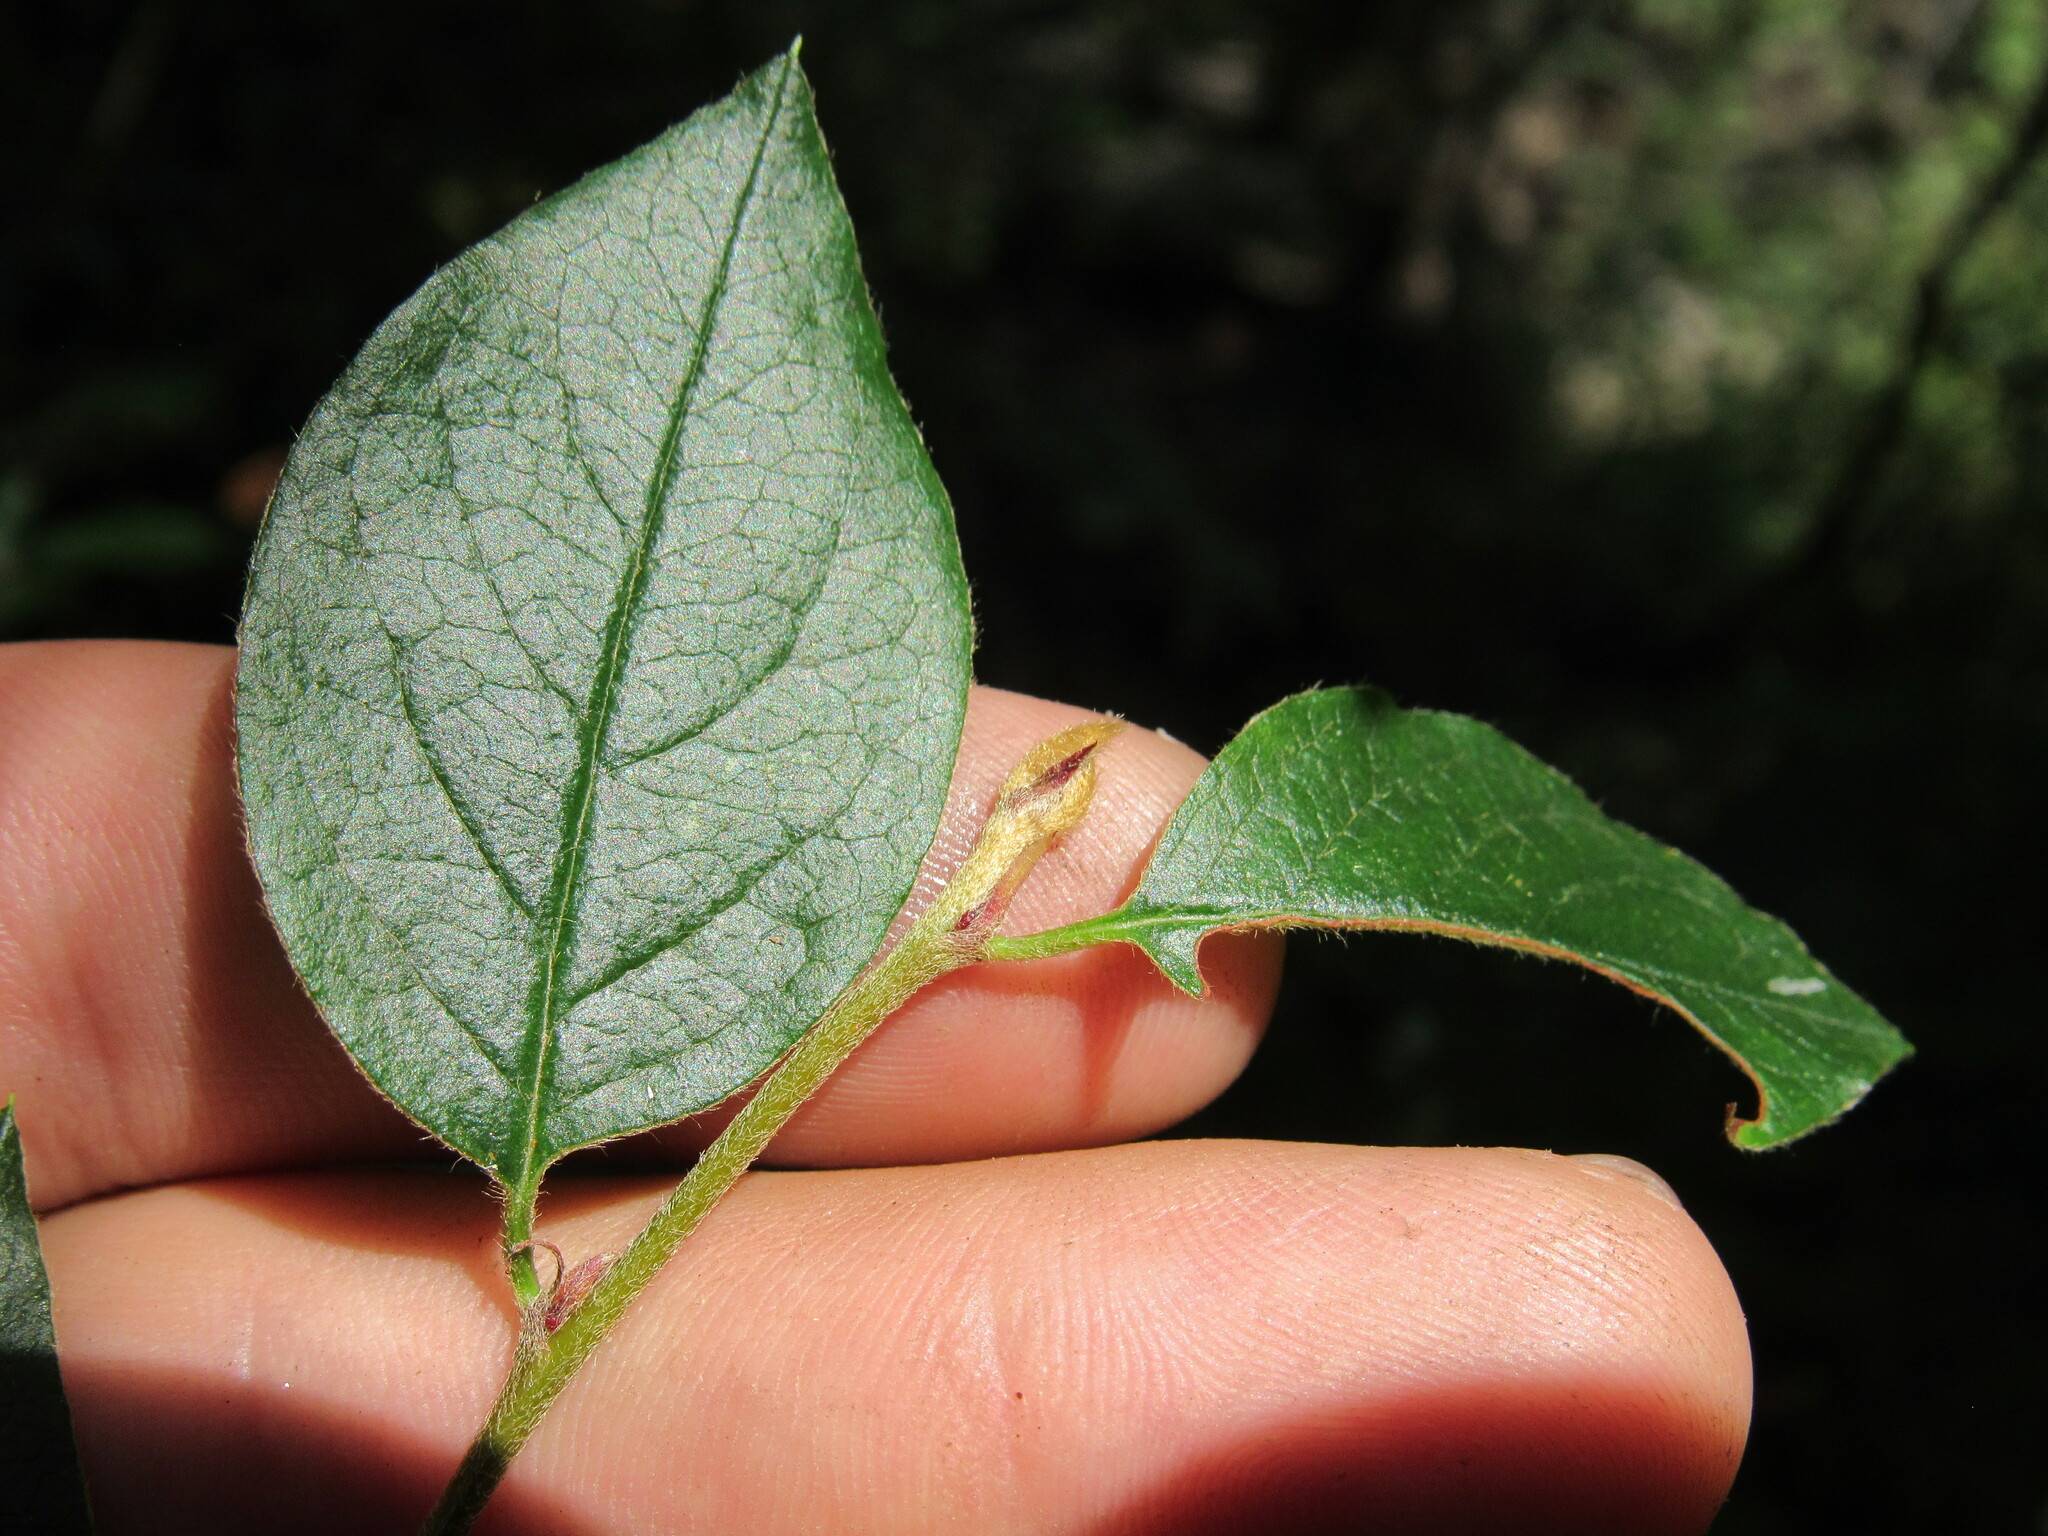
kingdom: Plantae
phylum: Tracheophyta
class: Magnoliopsida
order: Rosales
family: Rosaceae
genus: Cotoneaster
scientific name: Cotoneaster acutifolius
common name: Peking cotoneaster
